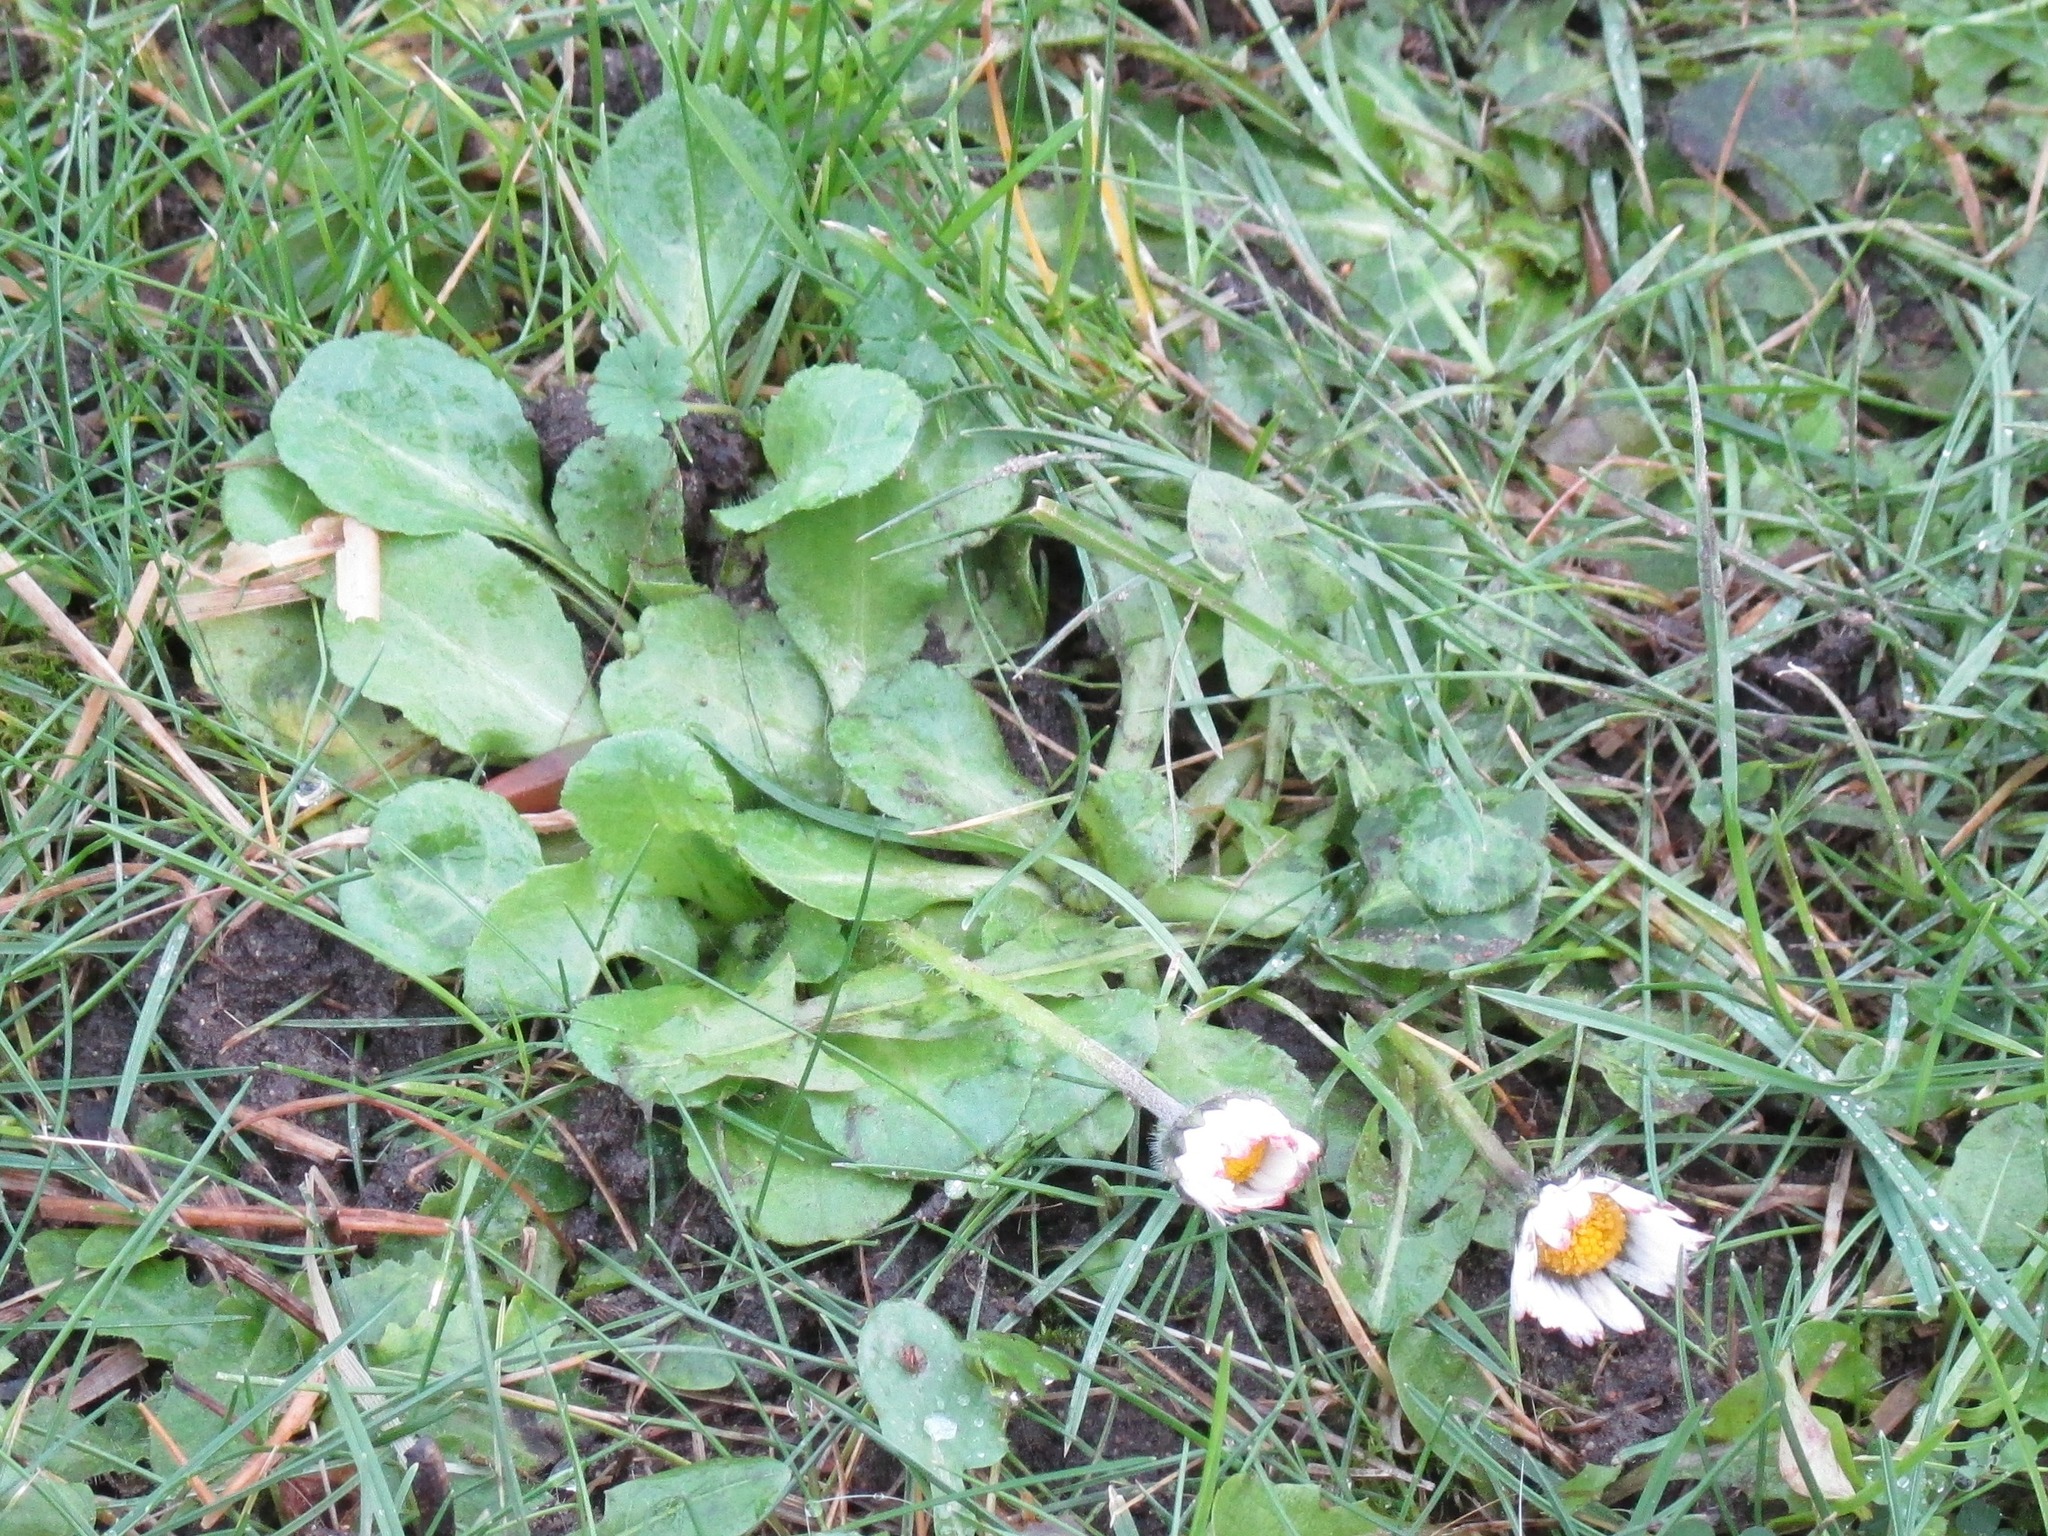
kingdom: Plantae
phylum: Tracheophyta
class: Magnoliopsida
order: Asterales
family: Asteraceae
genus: Bellis
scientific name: Bellis perennis
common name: Lawndaisy
